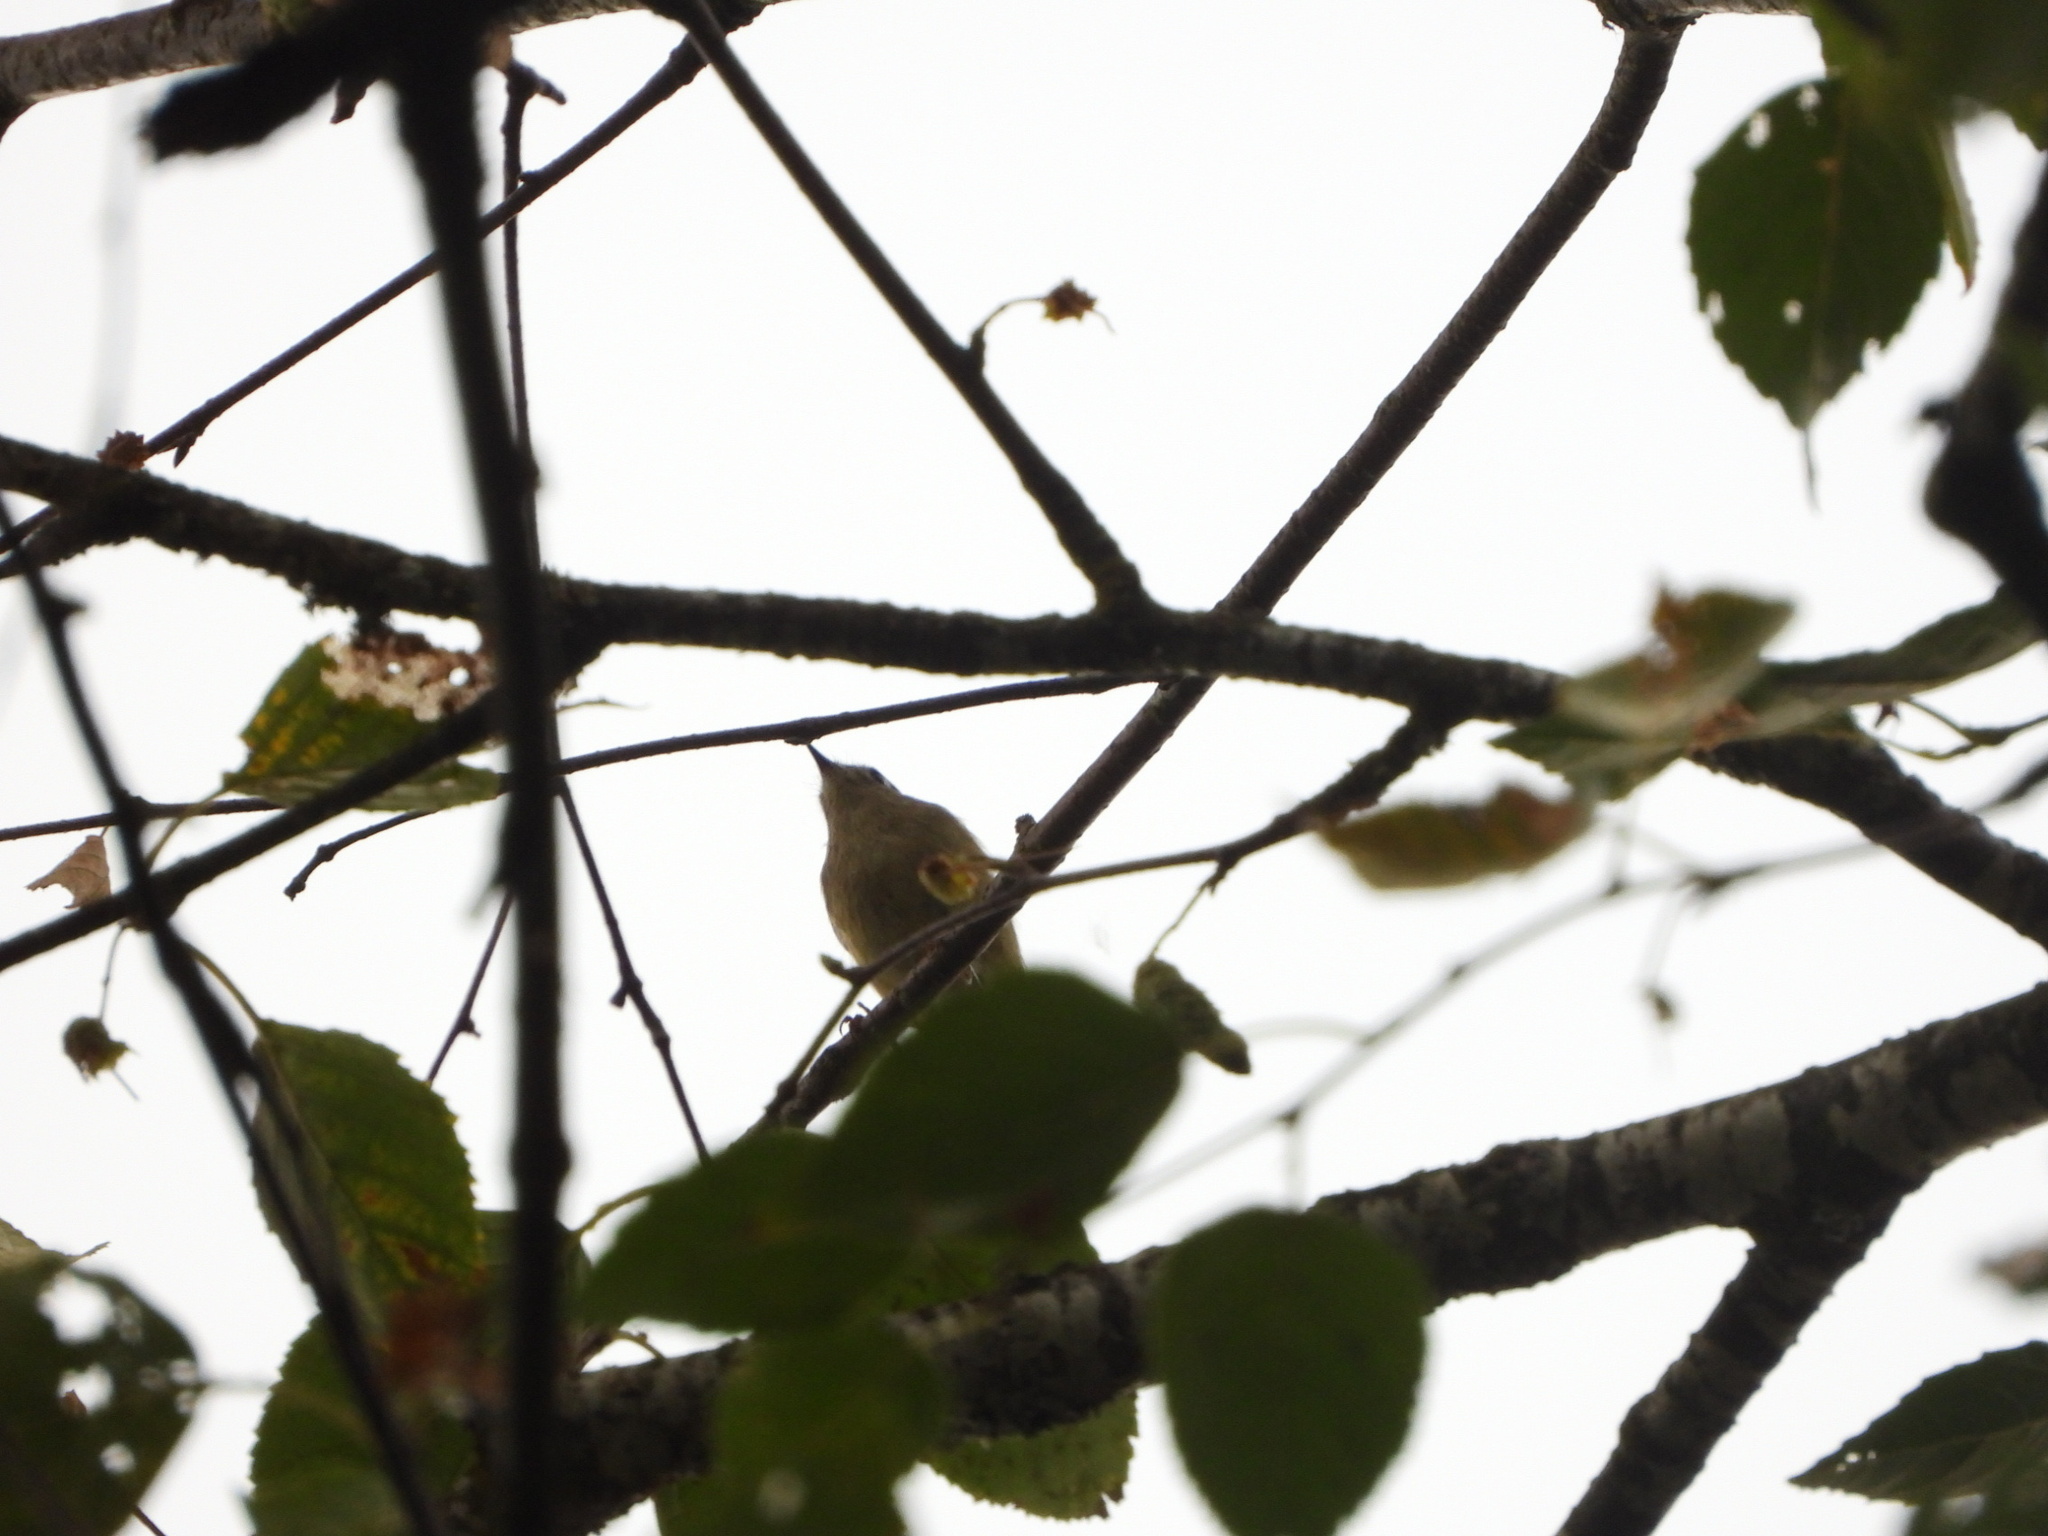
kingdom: Animalia
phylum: Chordata
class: Aves
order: Passeriformes
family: Regulidae
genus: Regulus
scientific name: Regulus calendula
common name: Ruby-crowned kinglet
